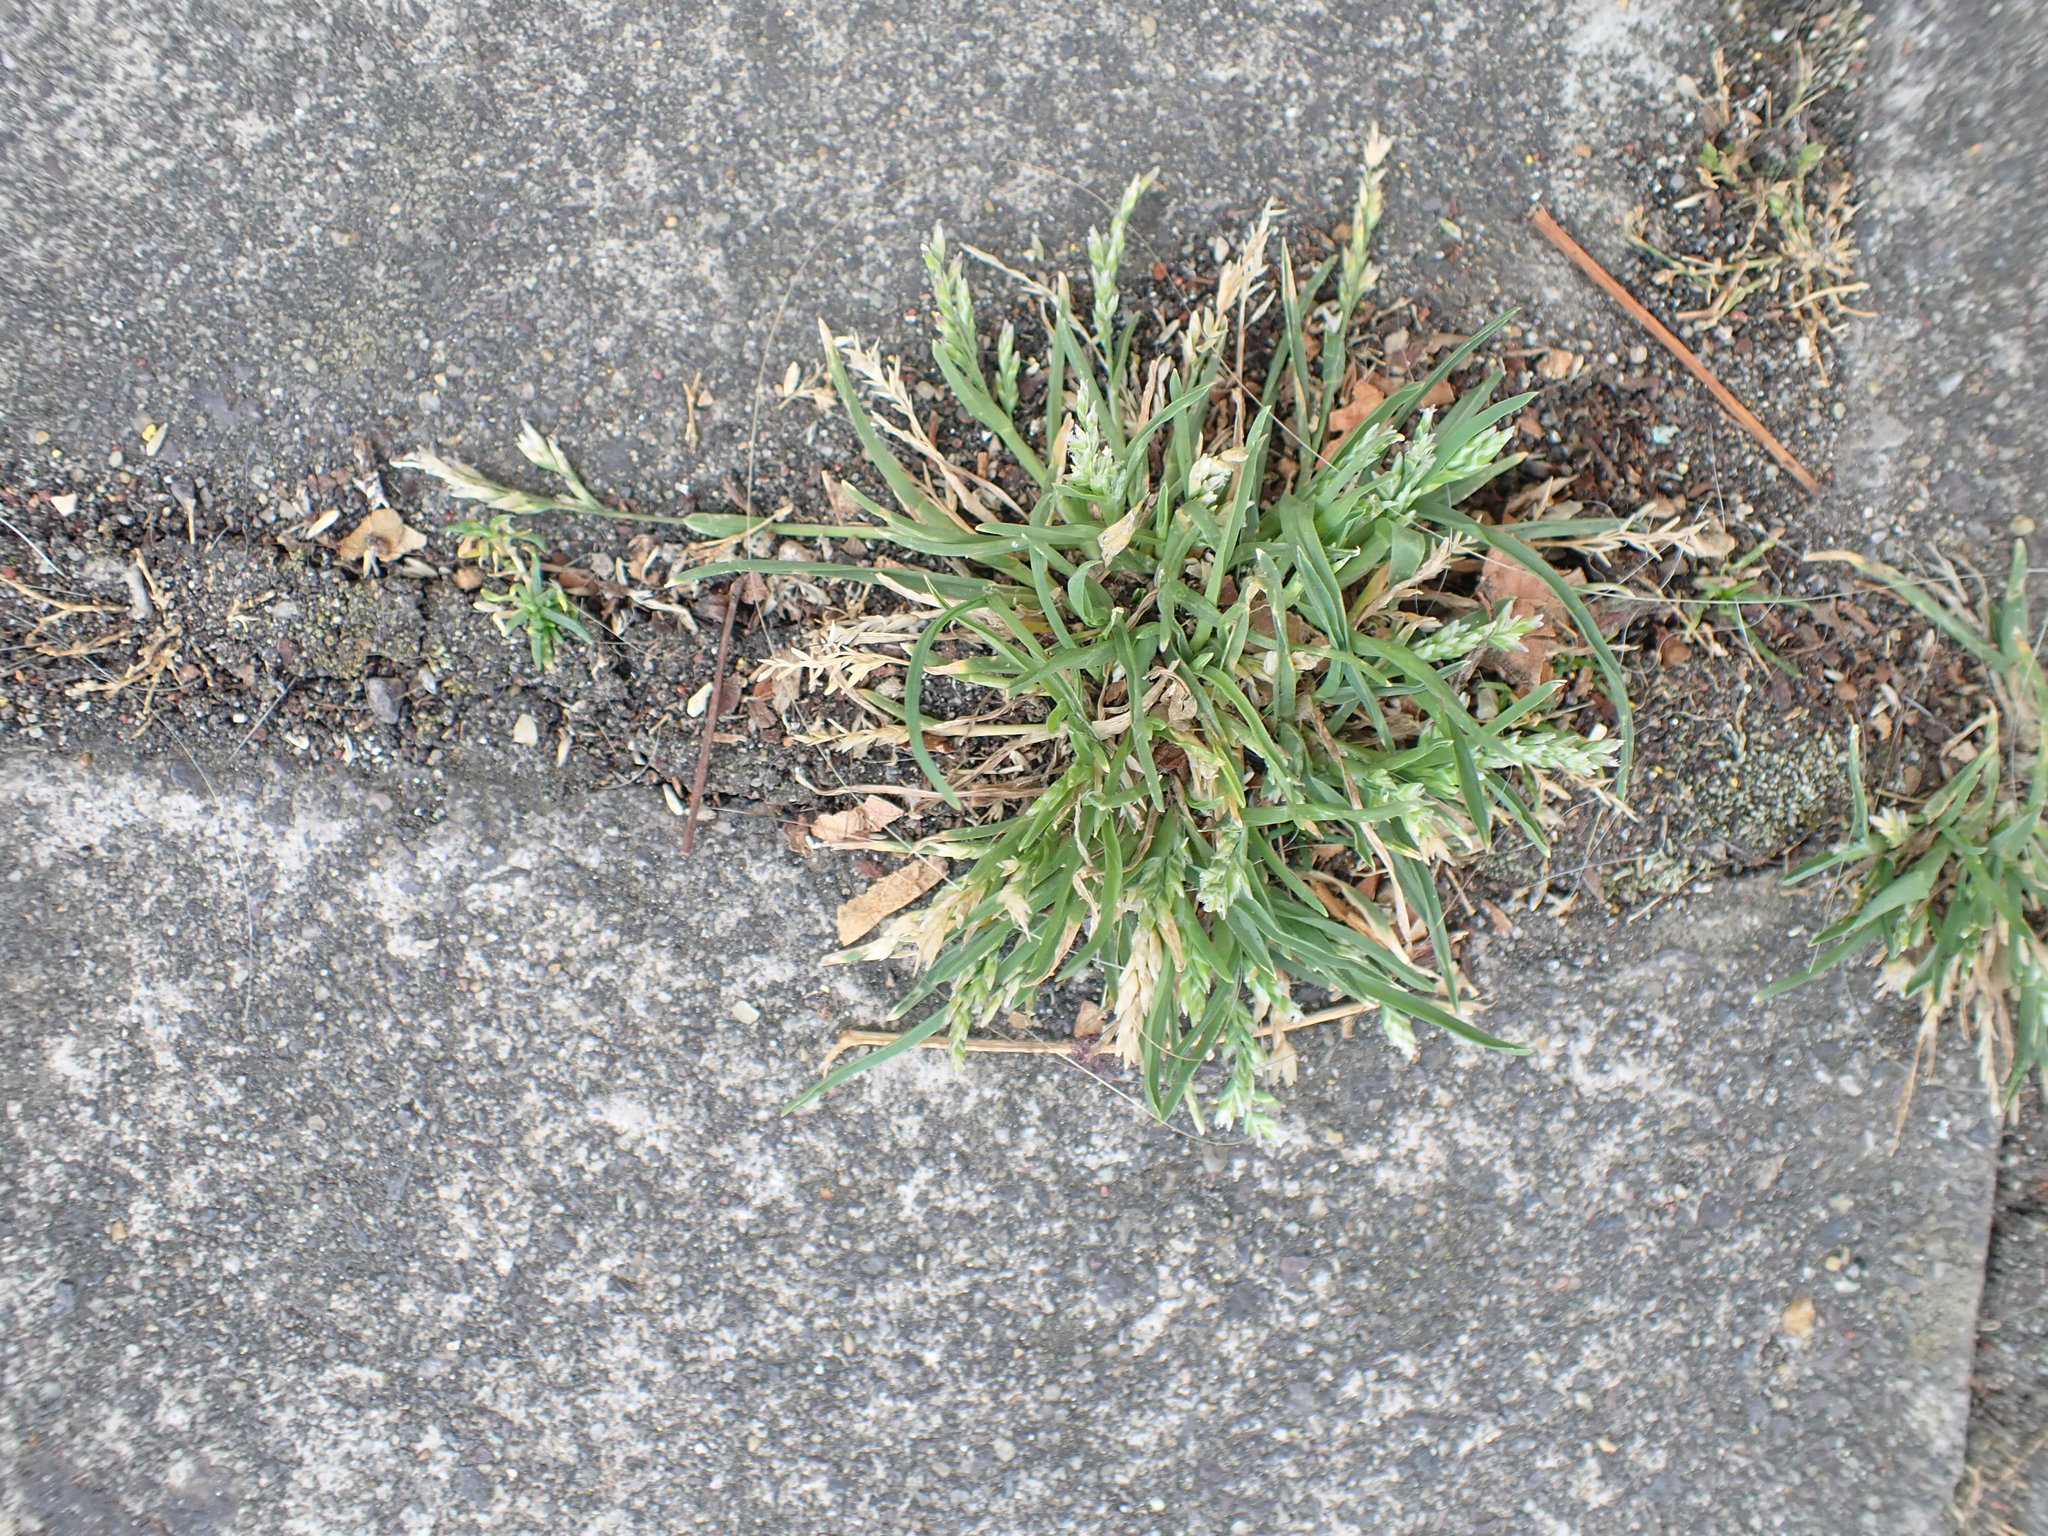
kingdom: Plantae
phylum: Tracheophyta
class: Liliopsida
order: Poales
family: Poaceae
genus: Poa
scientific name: Poa annua
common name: Annual bluegrass
